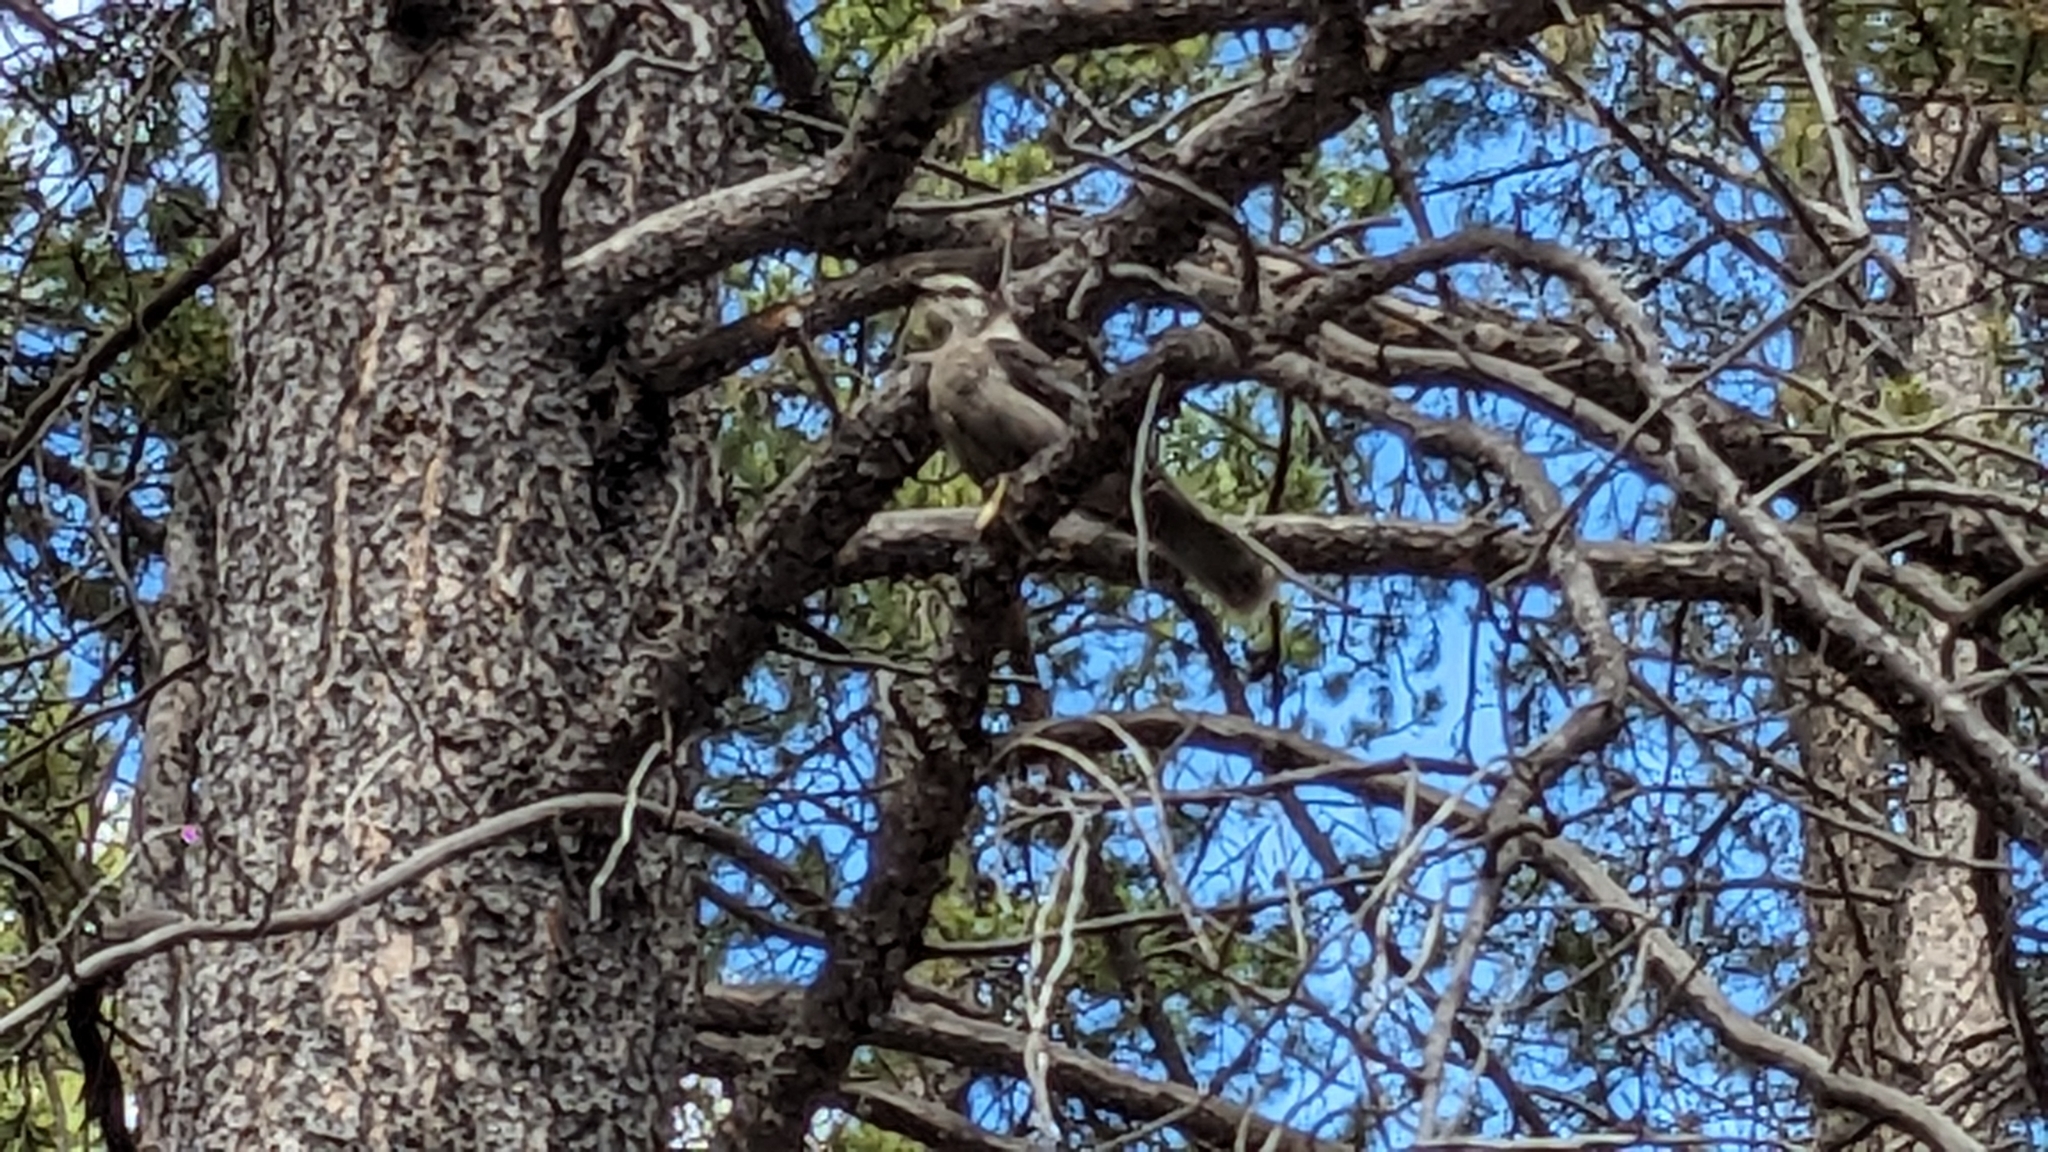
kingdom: Animalia
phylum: Chordata
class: Aves
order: Passeriformes
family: Corvidae
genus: Perisoreus
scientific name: Perisoreus canadensis
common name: Gray jay
